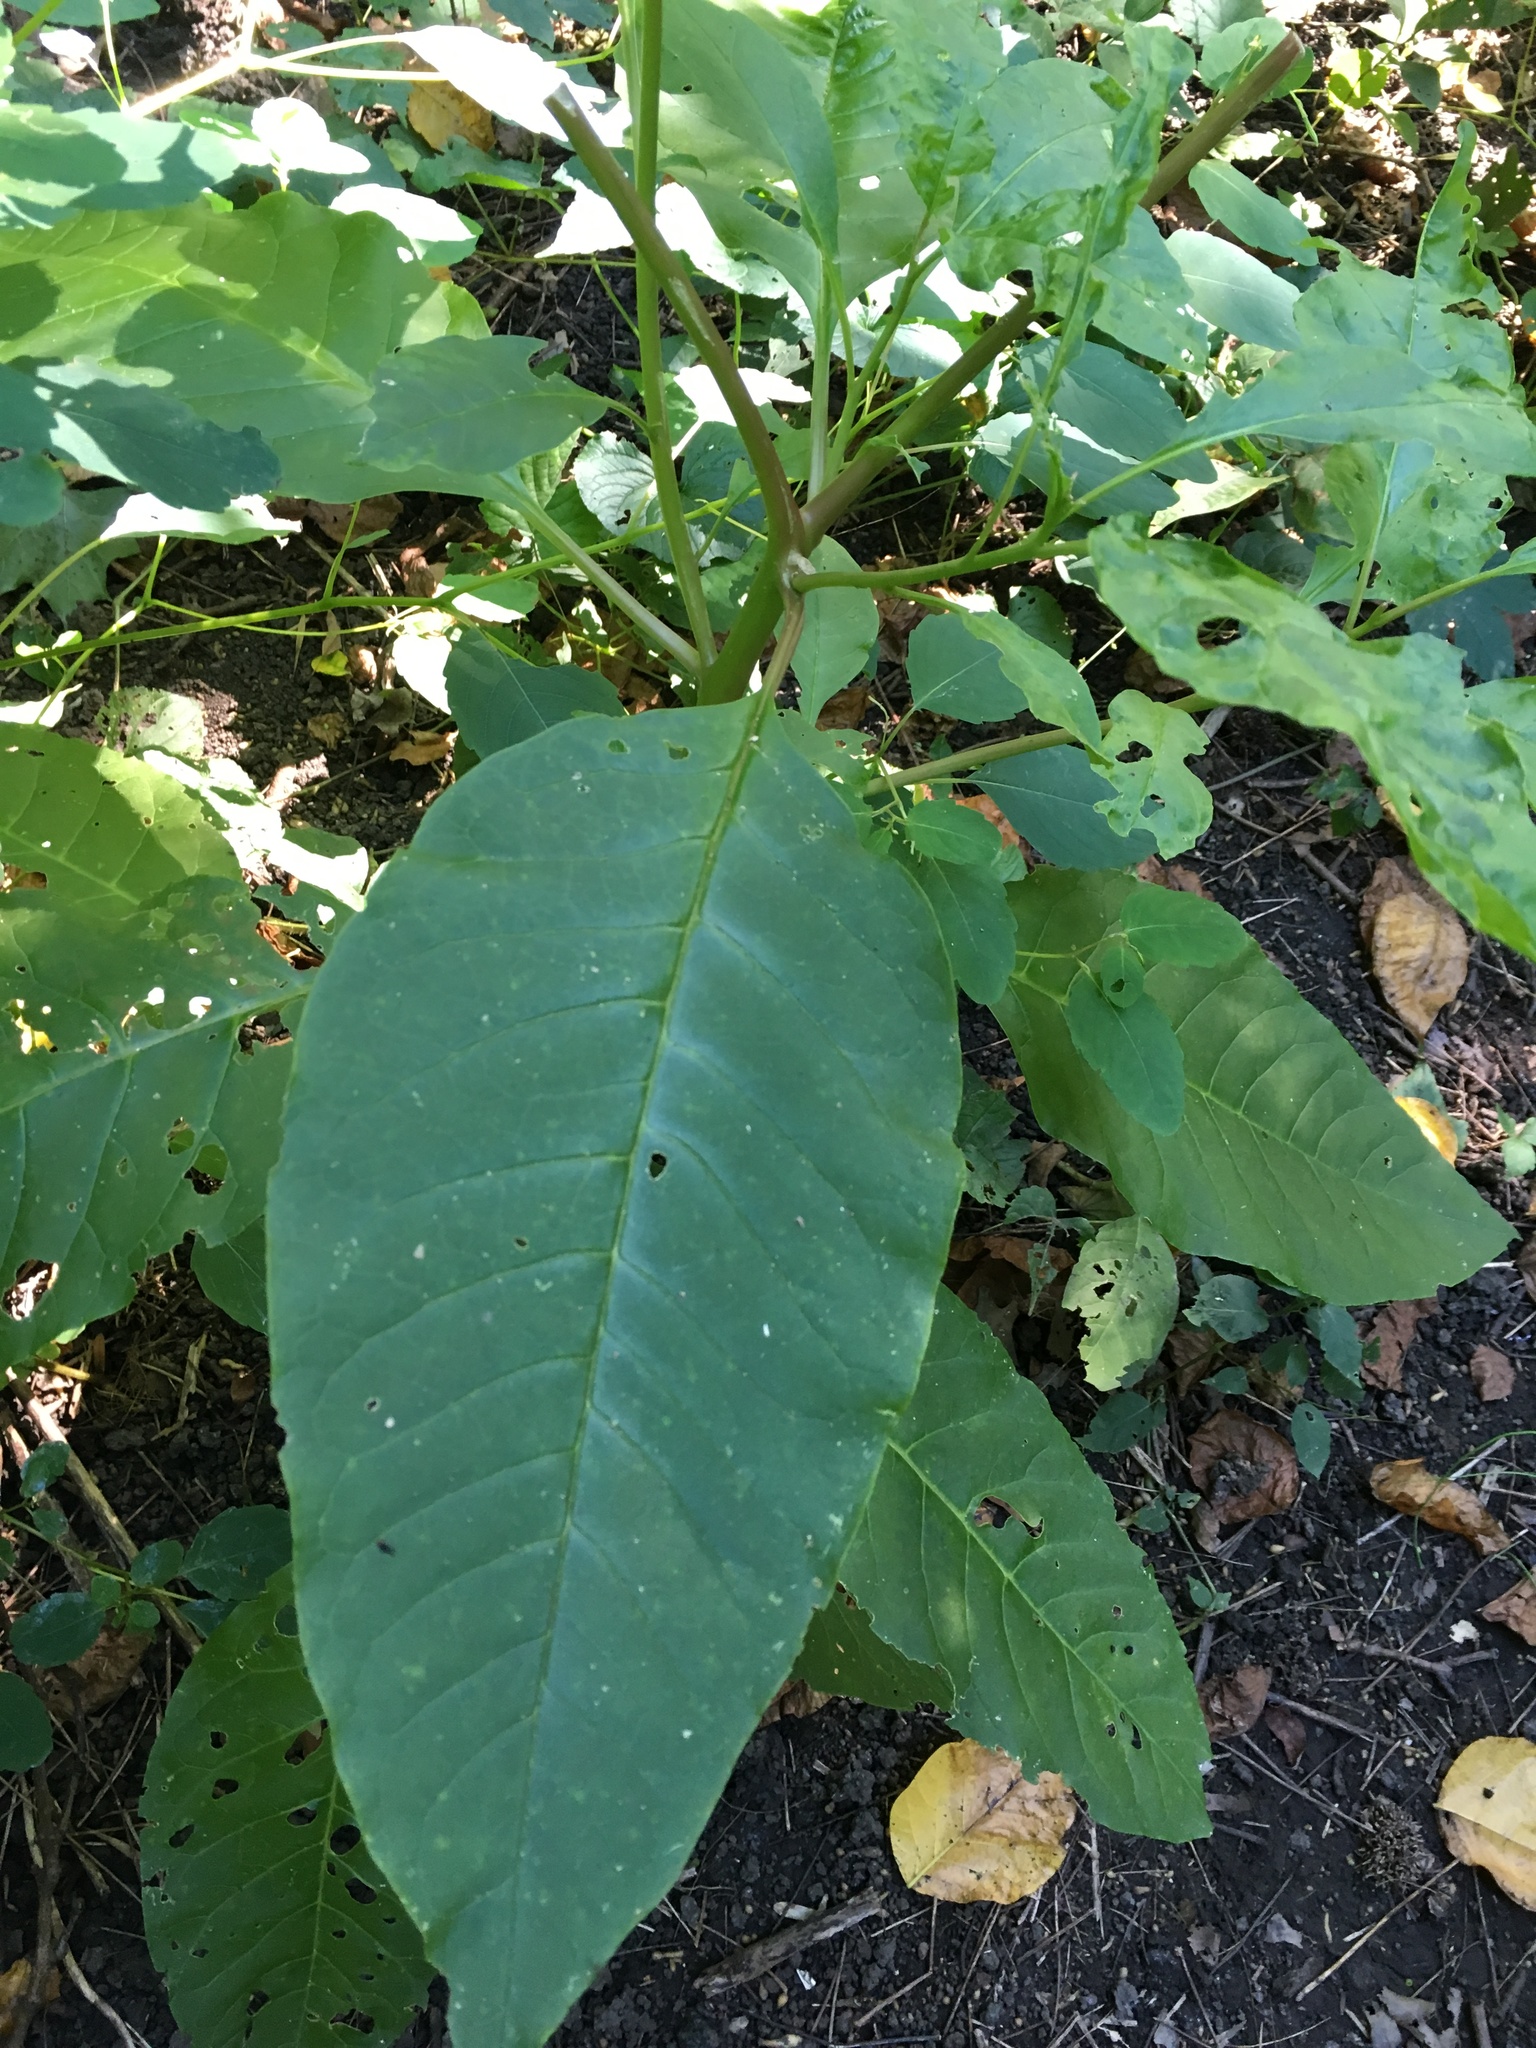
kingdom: Plantae
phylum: Tracheophyta
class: Magnoliopsida
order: Caryophyllales
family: Phytolaccaceae
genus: Phytolacca
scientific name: Phytolacca americana
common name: American pokeweed
